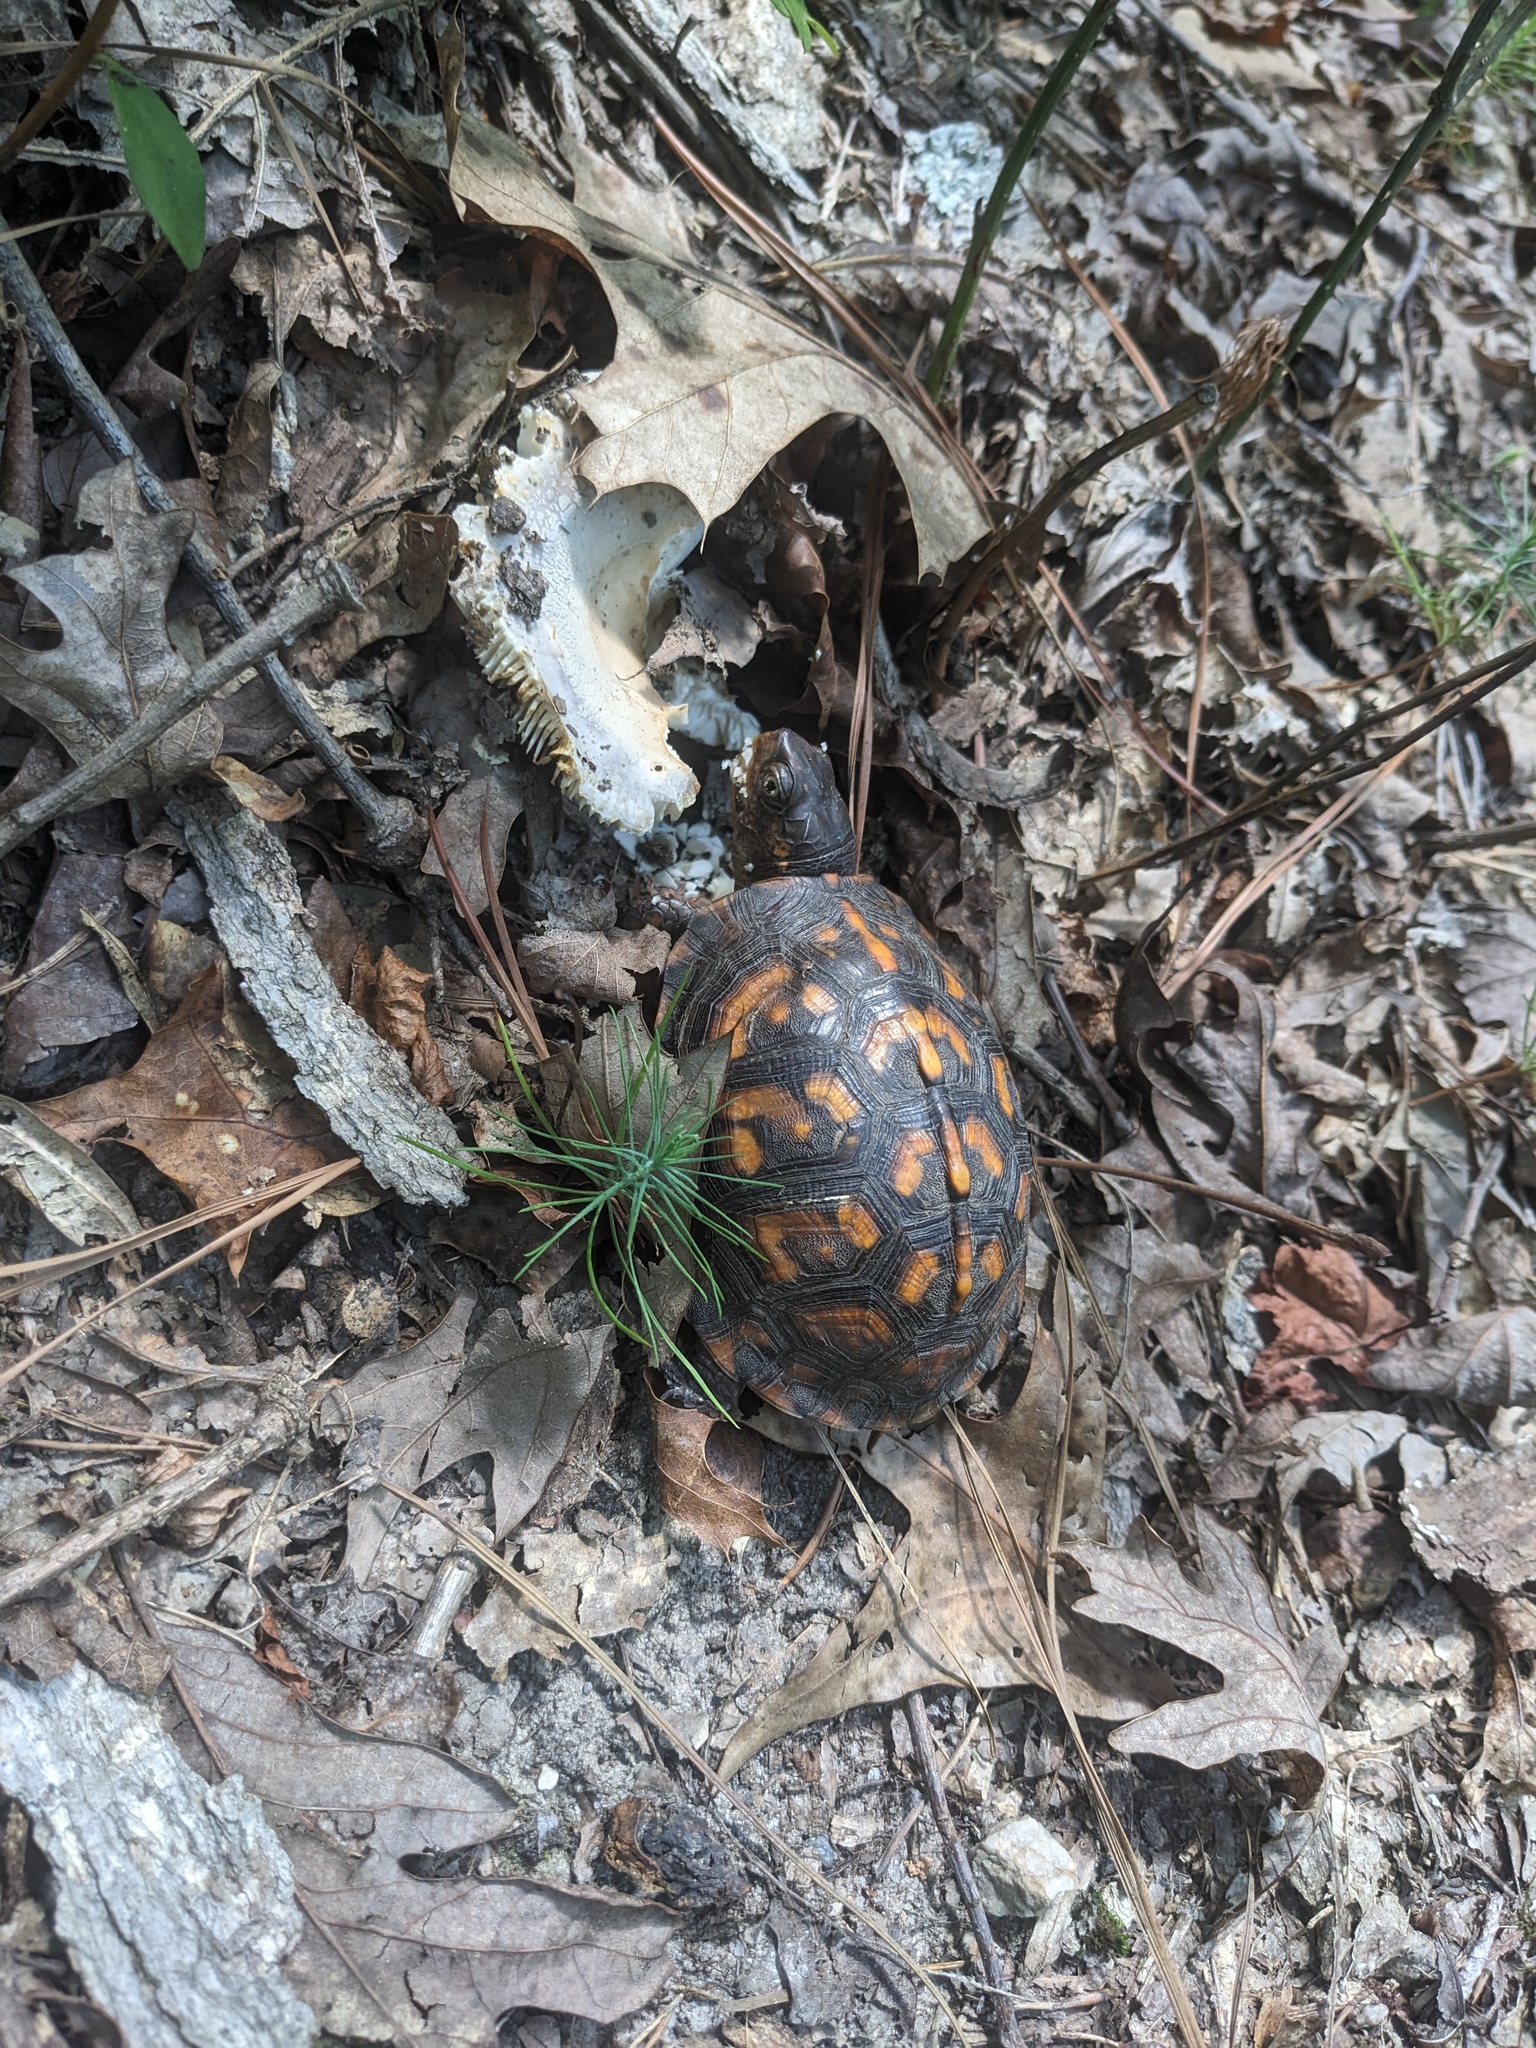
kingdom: Animalia
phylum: Chordata
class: Testudines
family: Emydidae
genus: Terrapene
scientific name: Terrapene carolina
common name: Common box turtle
